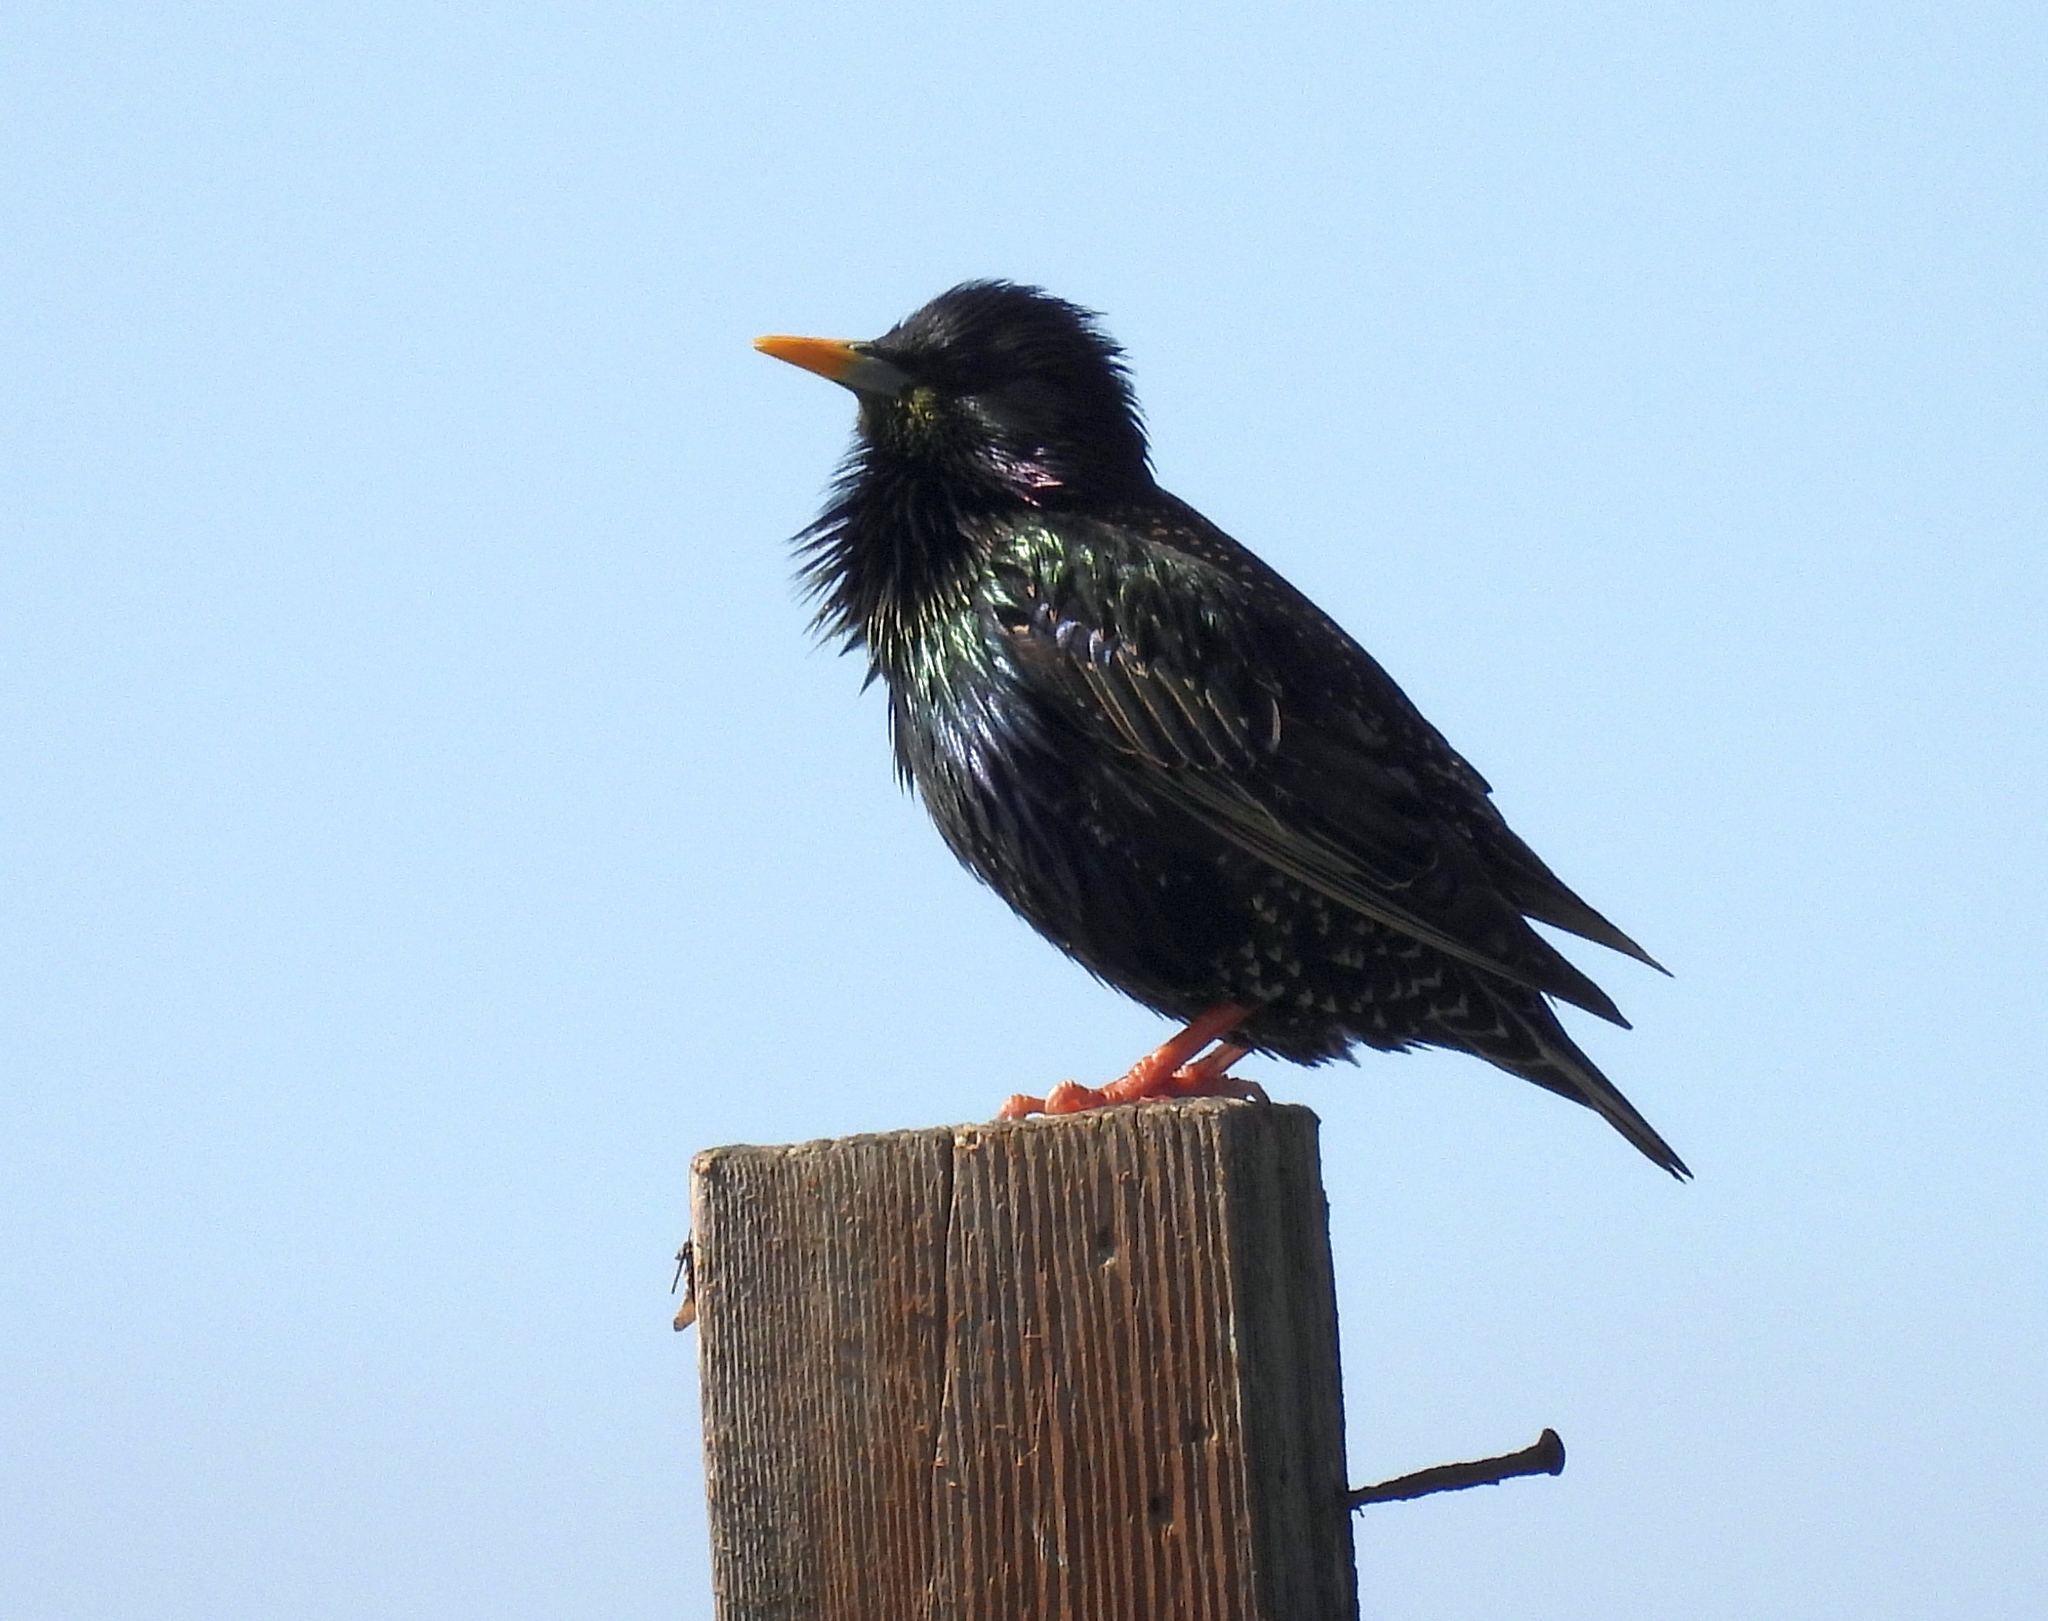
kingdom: Animalia
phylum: Chordata
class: Aves
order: Passeriformes
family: Sturnidae
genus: Sturnus
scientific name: Sturnus vulgaris
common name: Common starling
